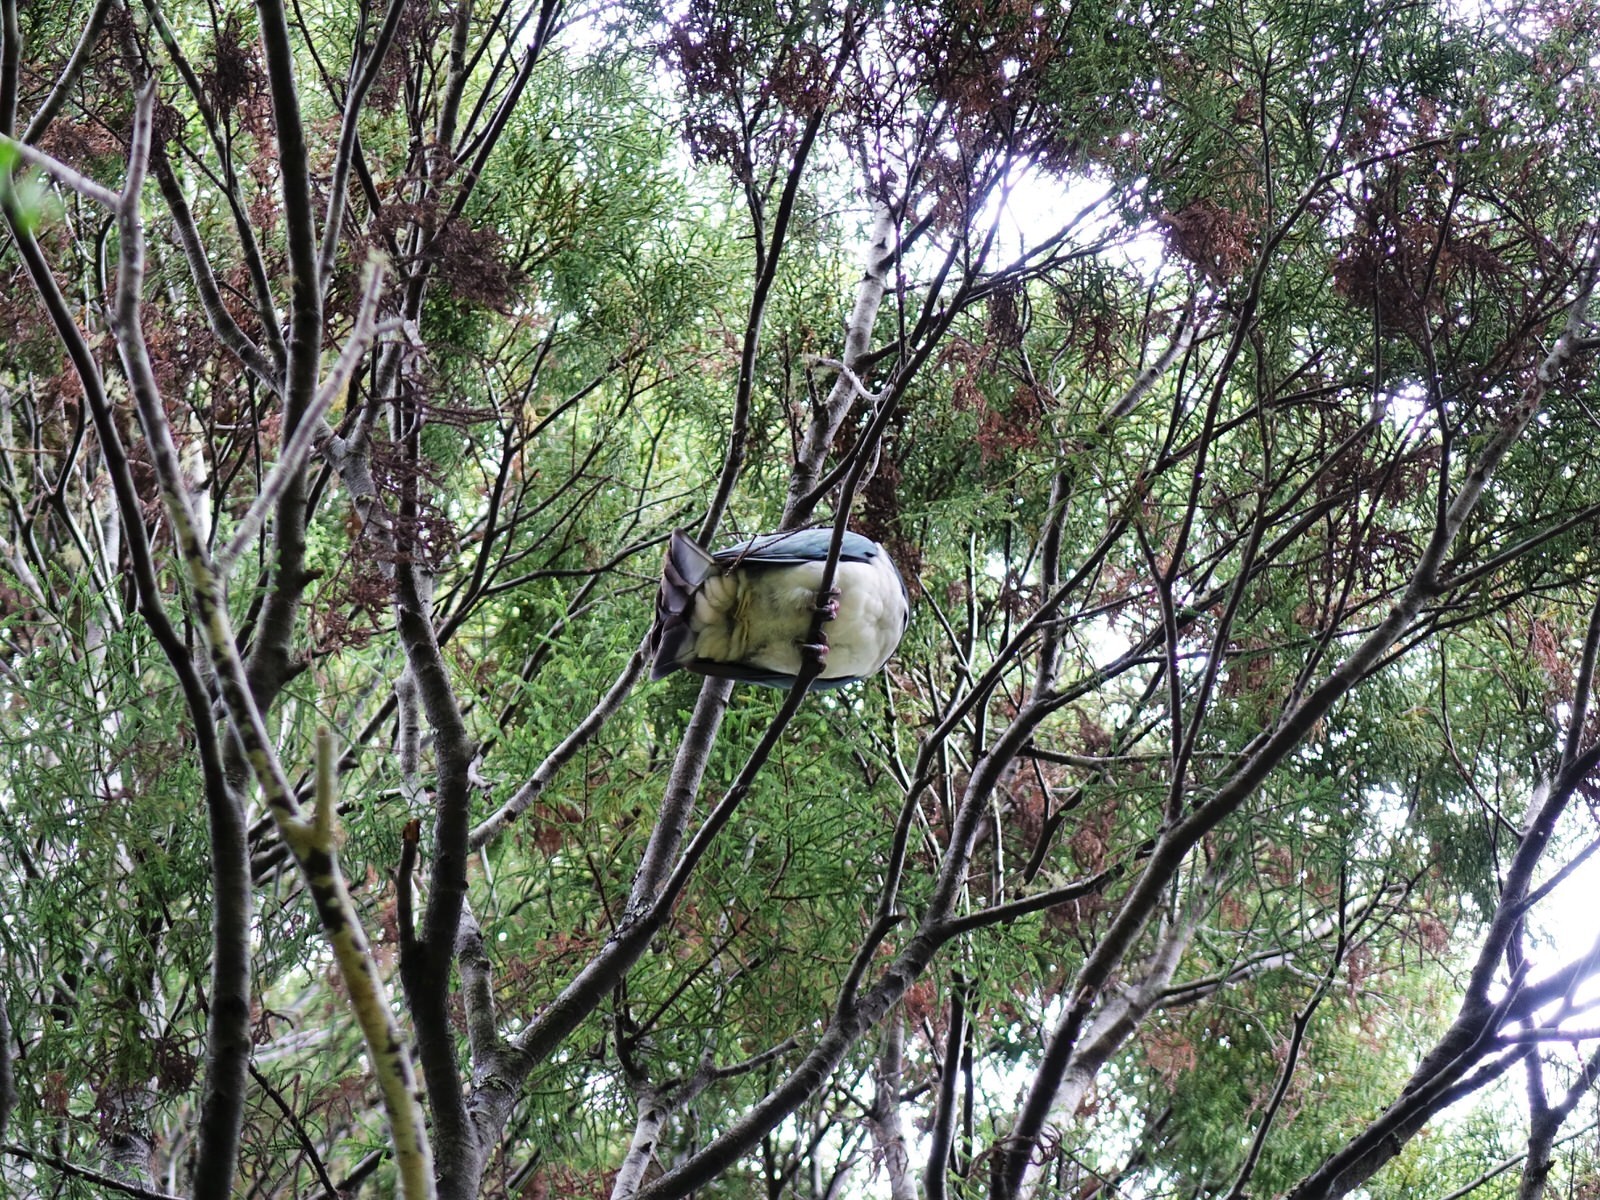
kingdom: Animalia
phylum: Chordata
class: Aves
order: Columbiformes
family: Columbidae
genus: Hemiphaga
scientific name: Hemiphaga novaeseelandiae
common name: New zealand pigeon
